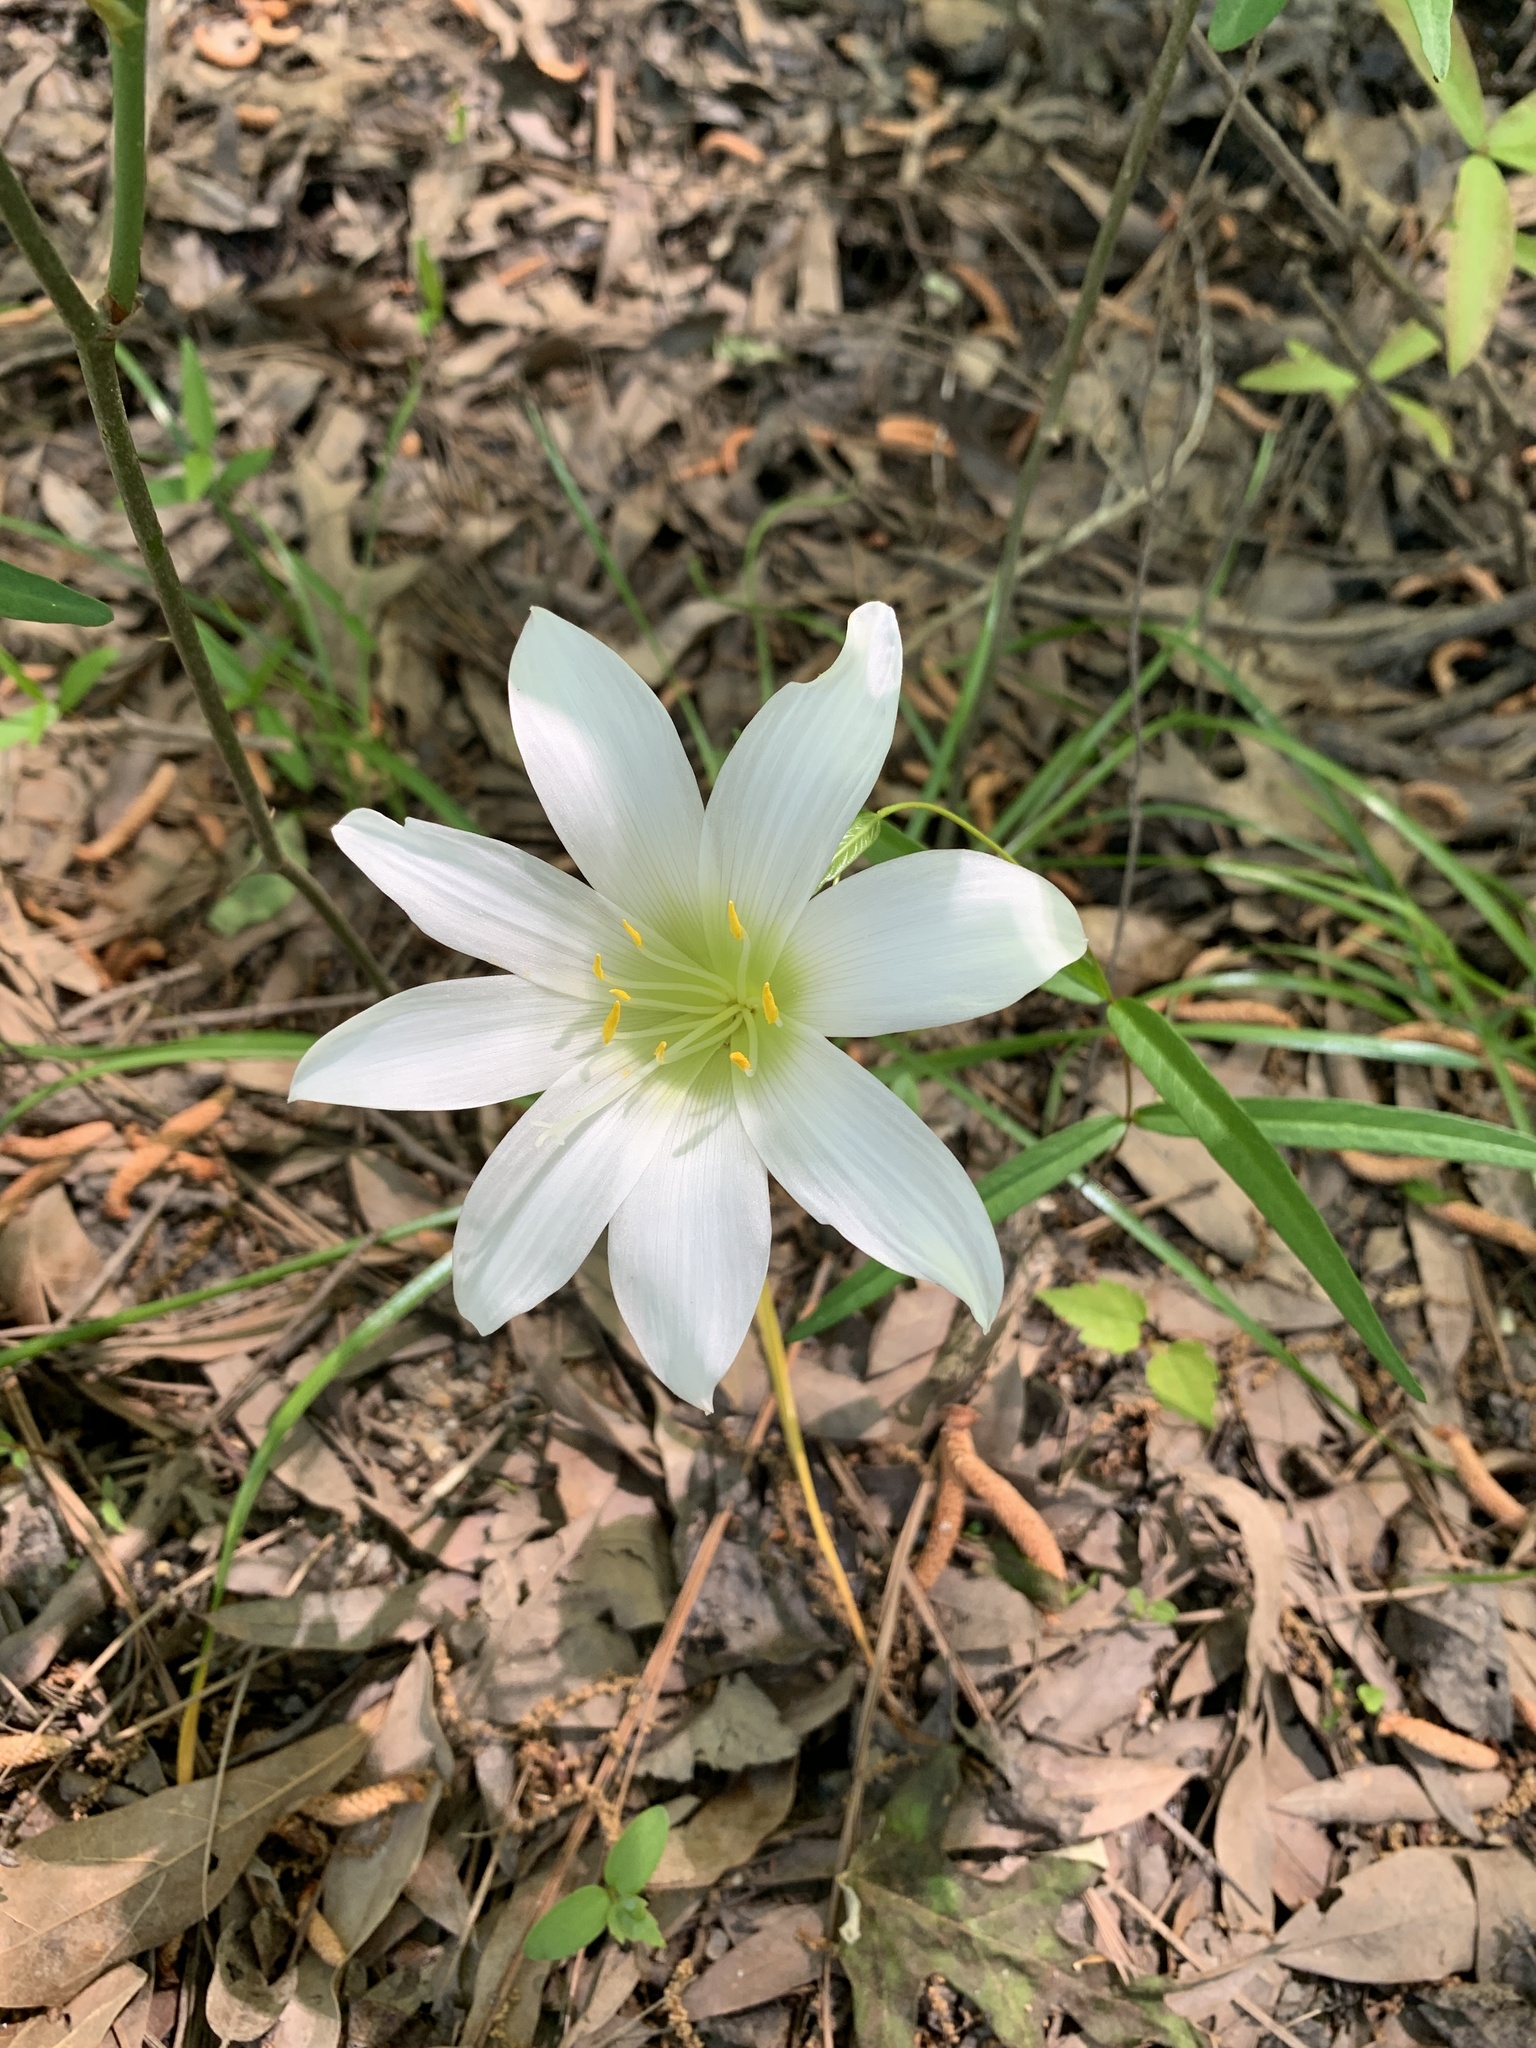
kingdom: Plantae
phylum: Tracheophyta
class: Liliopsida
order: Asparagales
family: Amaryllidaceae
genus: Zephyranthes
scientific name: Zephyranthes atamasco
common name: Atamasco lily
